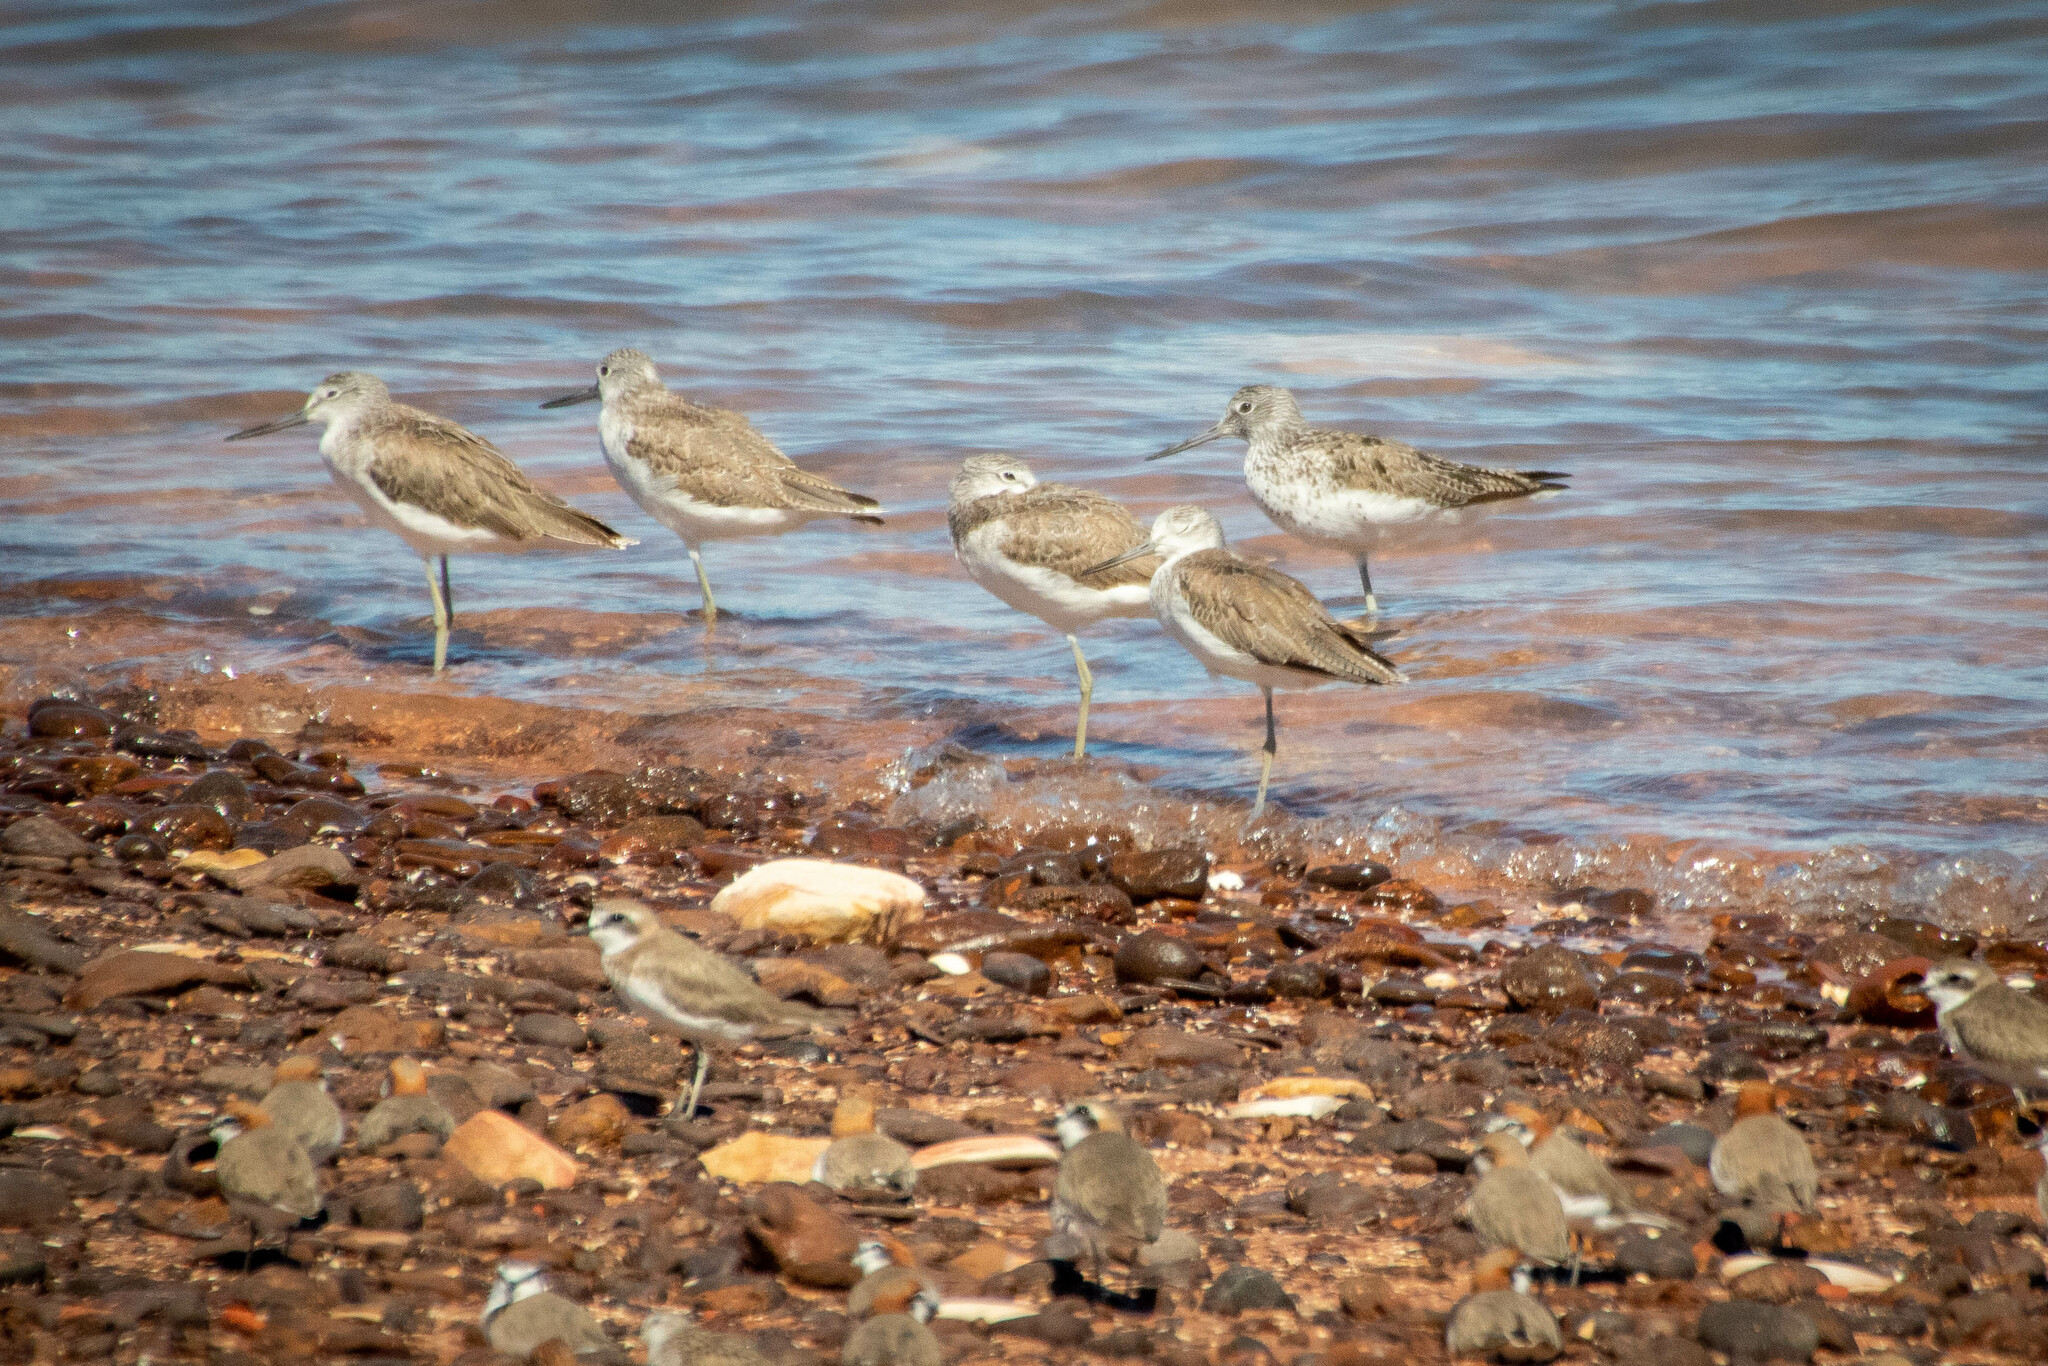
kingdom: Animalia
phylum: Chordata
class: Aves
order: Charadriiformes
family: Scolopacidae
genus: Tringa
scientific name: Tringa nebularia
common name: Common greenshank
